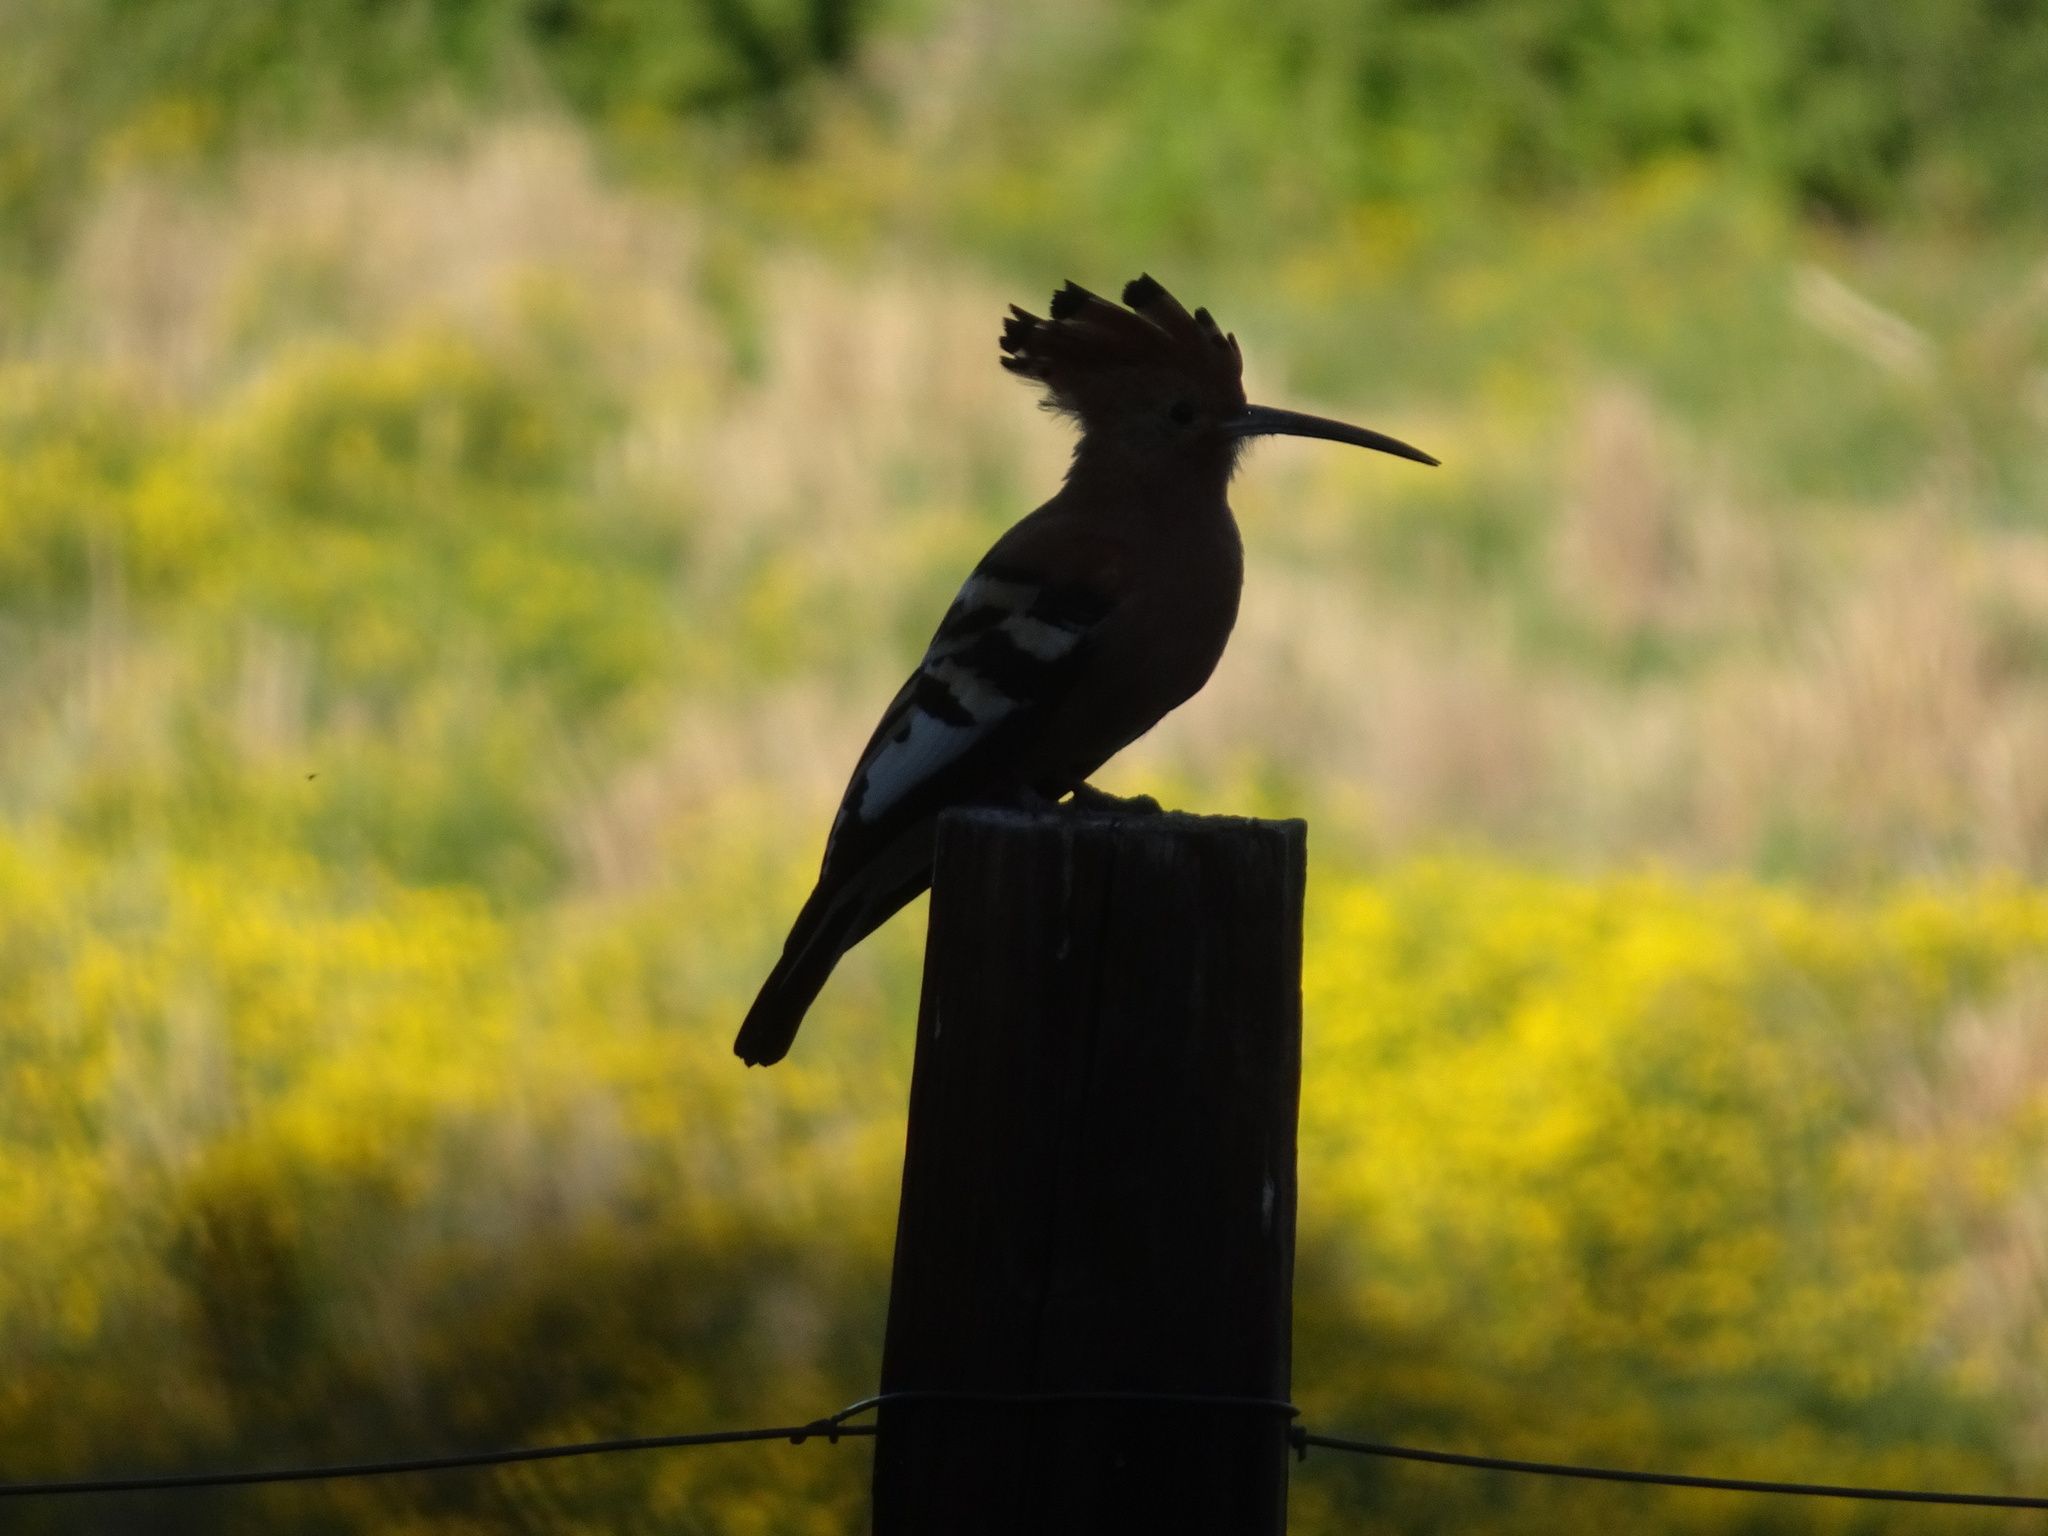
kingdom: Animalia
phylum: Chordata
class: Aves
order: Bucerotiformes
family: Upupidae
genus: Upupa
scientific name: Upupa africana
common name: African hoopoe
